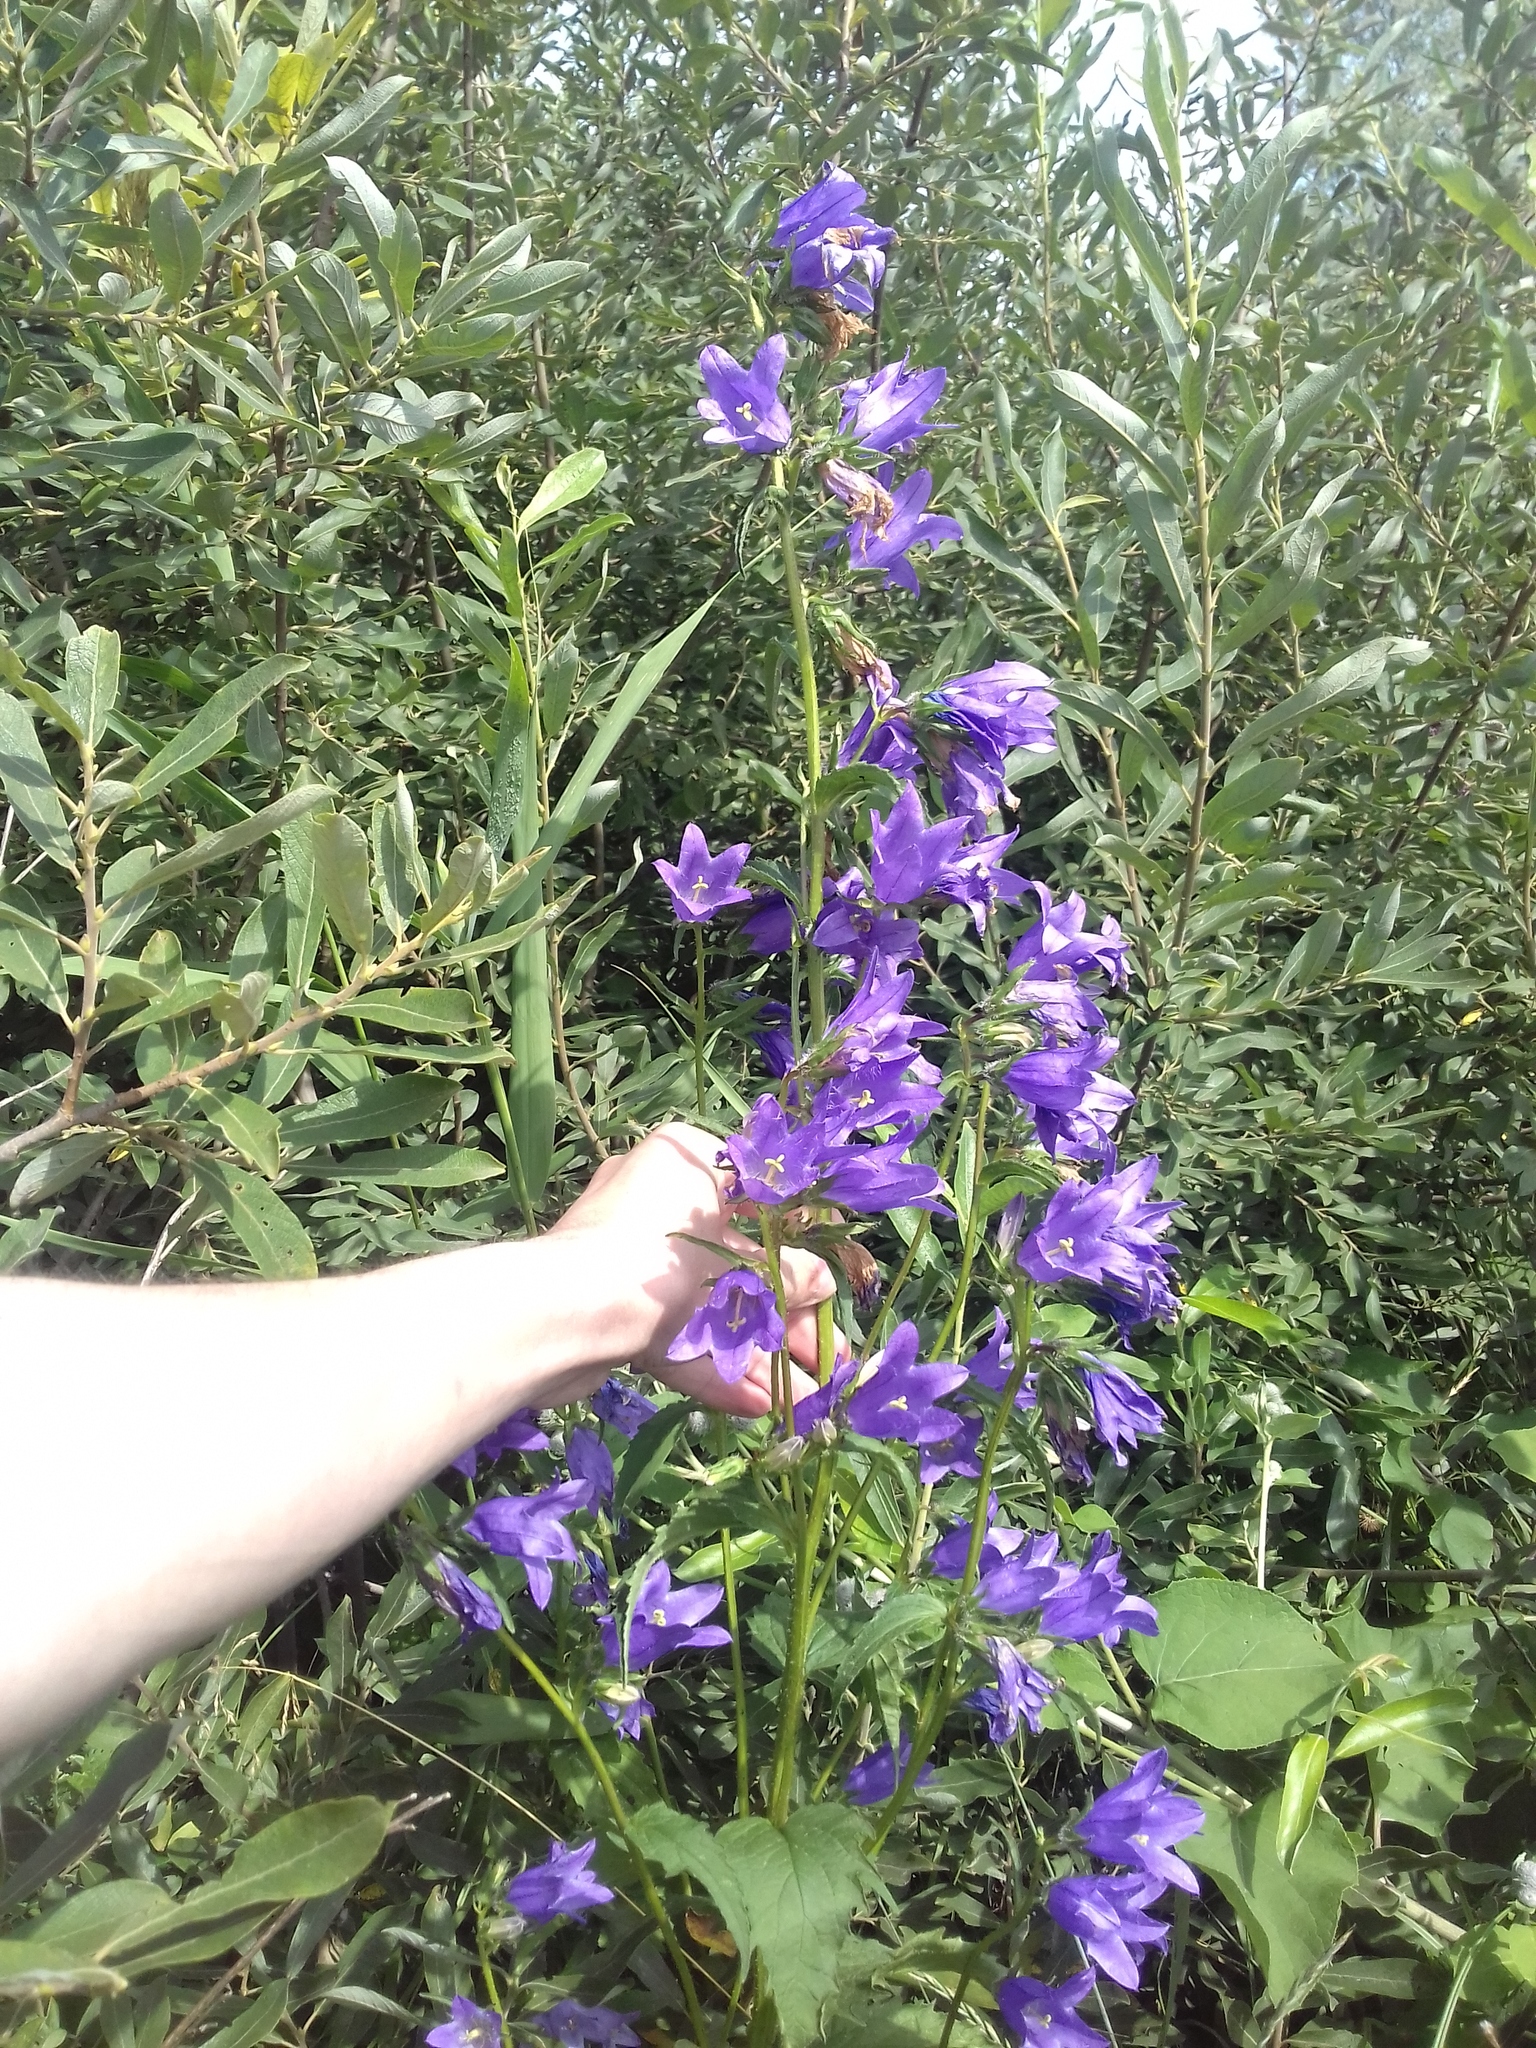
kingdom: Plantae
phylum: Tracheophyta
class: Magnoliopsida
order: Asterales
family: Campanulaceae
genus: Campanula
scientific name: Campanula trachelium
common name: Nettle-leaved bellflower
